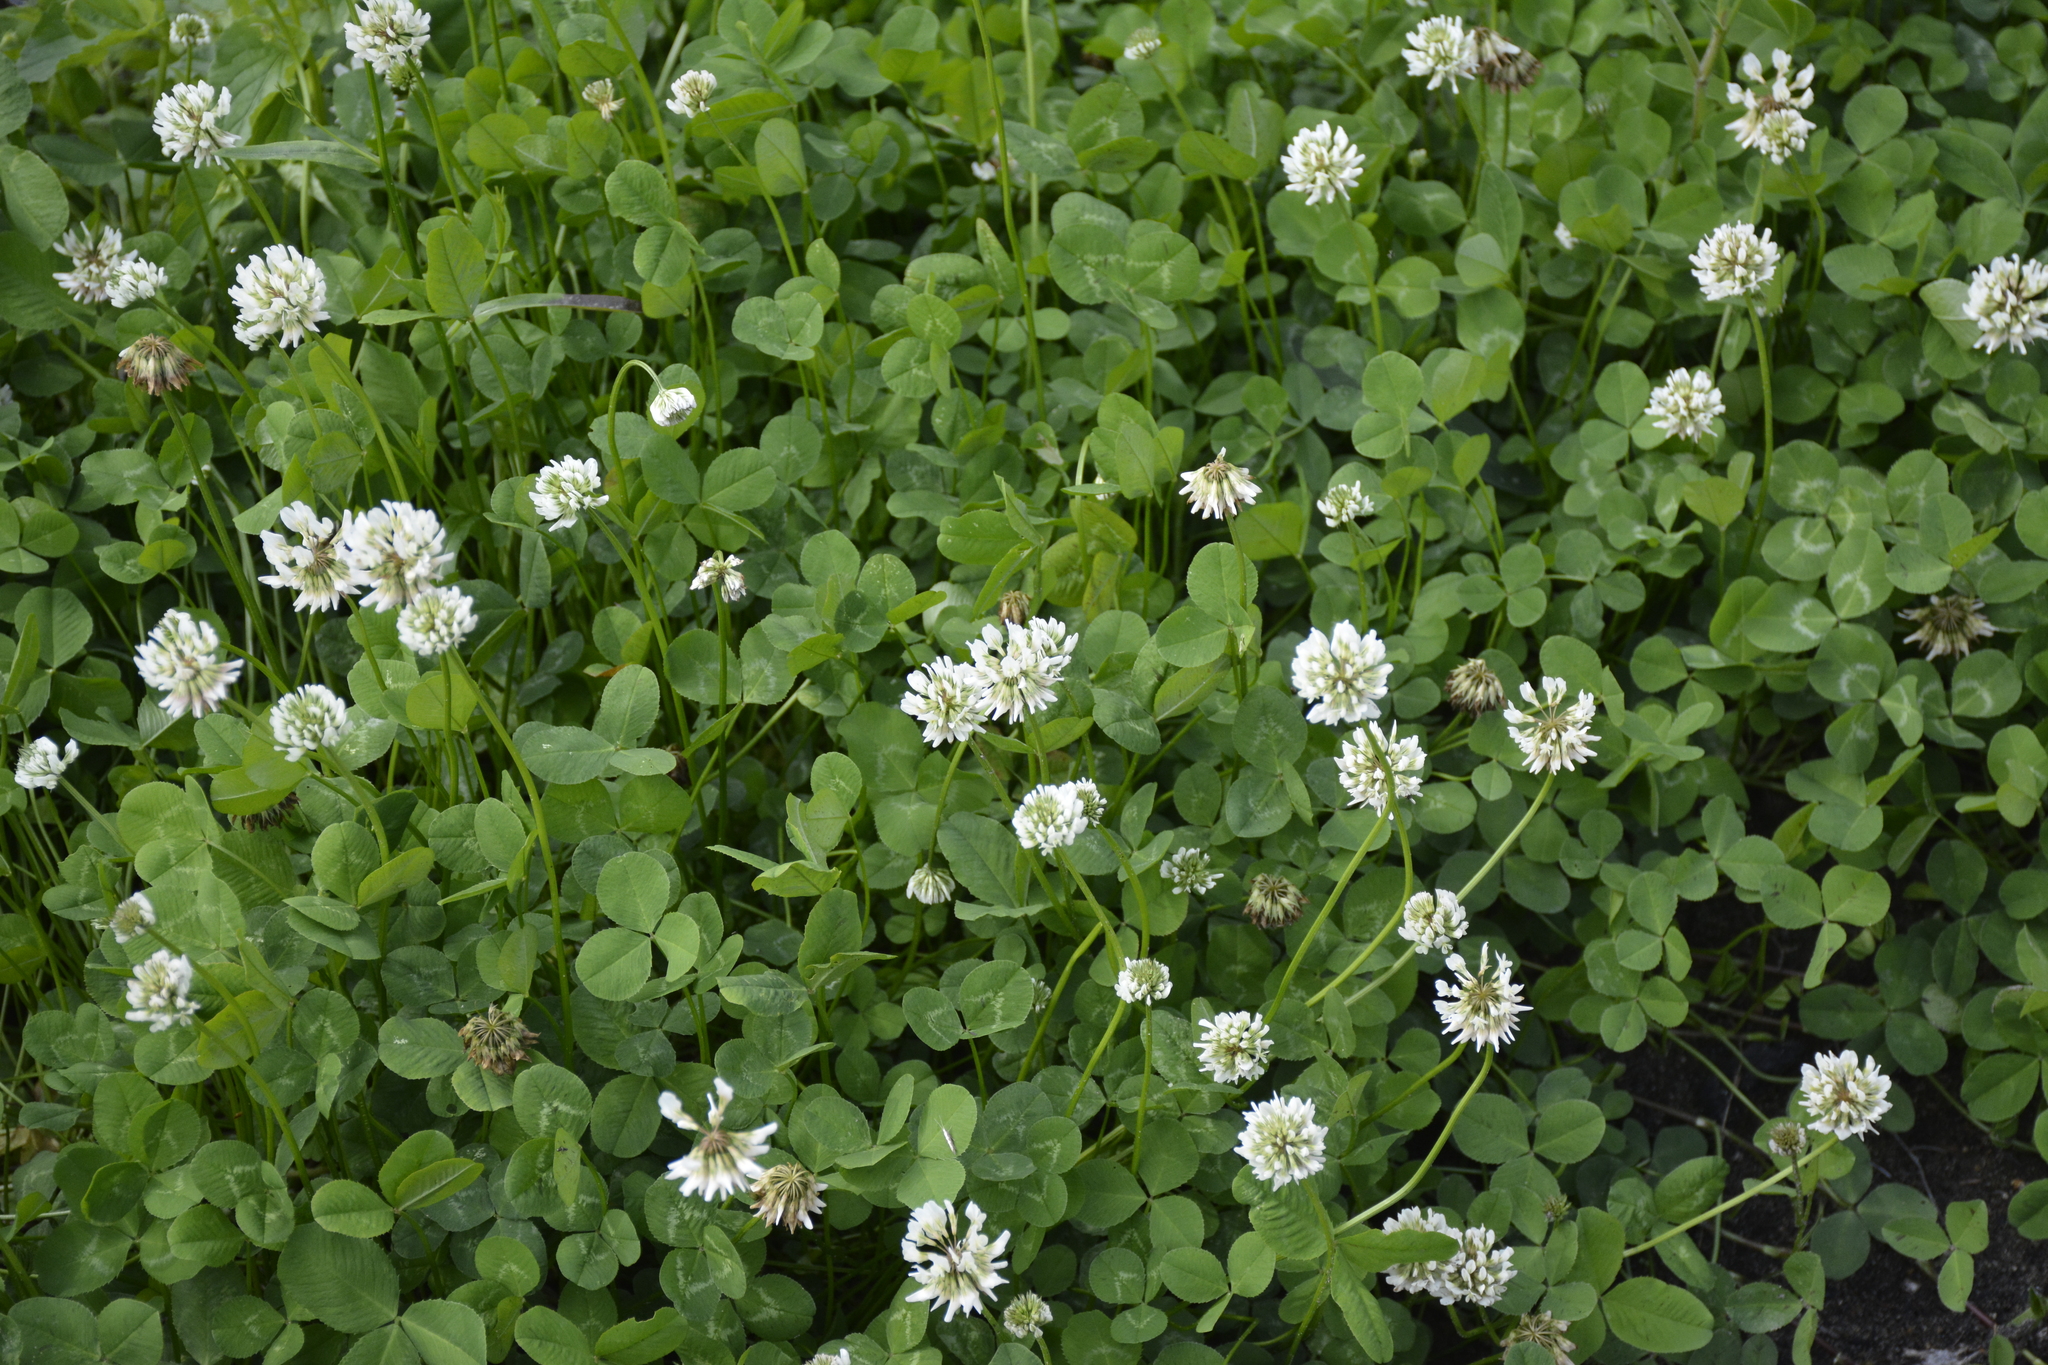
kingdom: Plantae
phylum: Tracheophyta
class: Magnoliopsida
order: Fabales
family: Fabaceae
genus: Trifolium
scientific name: Trifolium repens
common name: White clover
